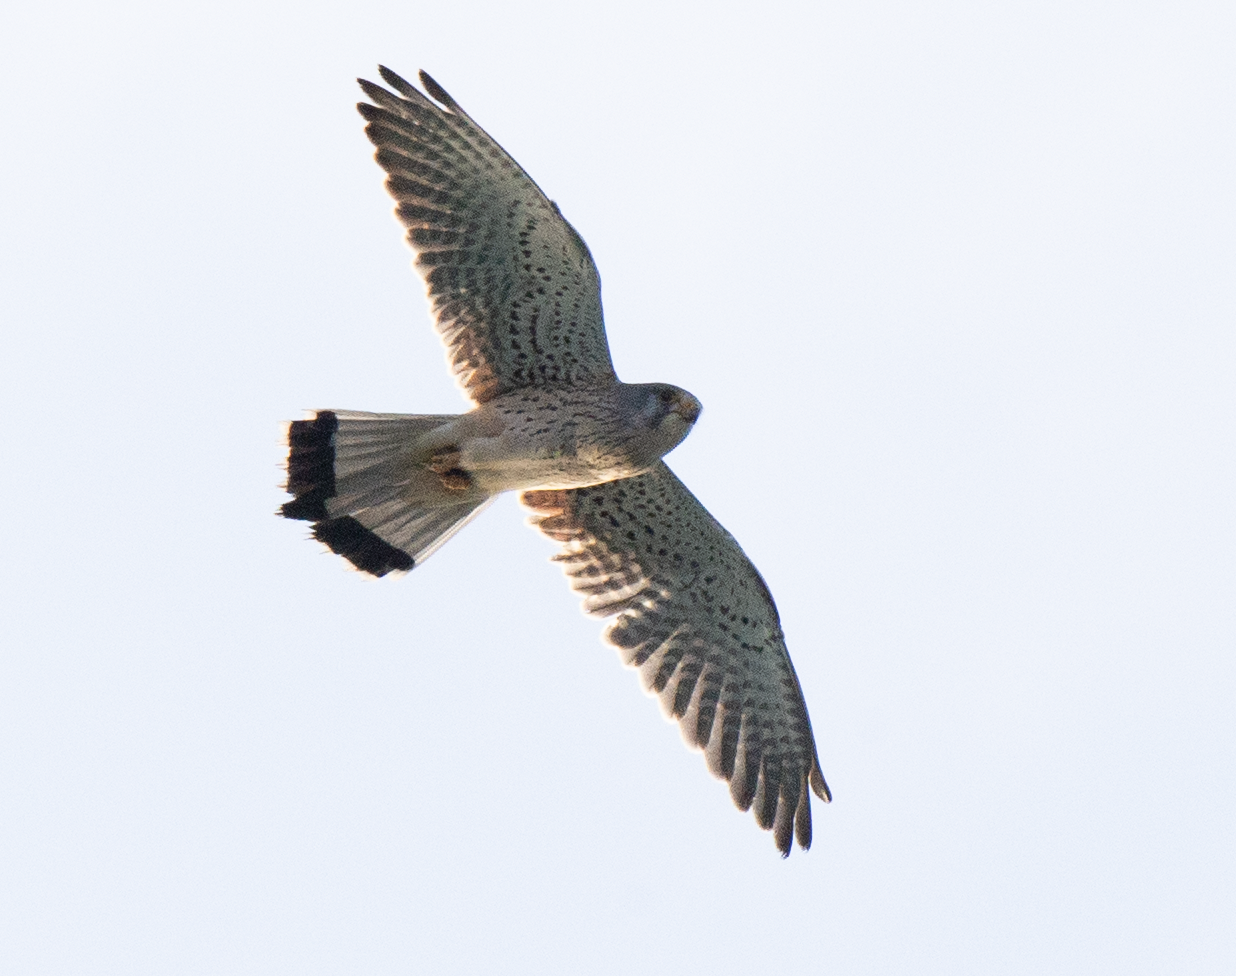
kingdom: Animalia
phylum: Chordata
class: Aves
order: Falconiformes
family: Falconidae
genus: Falco
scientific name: Falco tinnunculus
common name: Common kestrel
